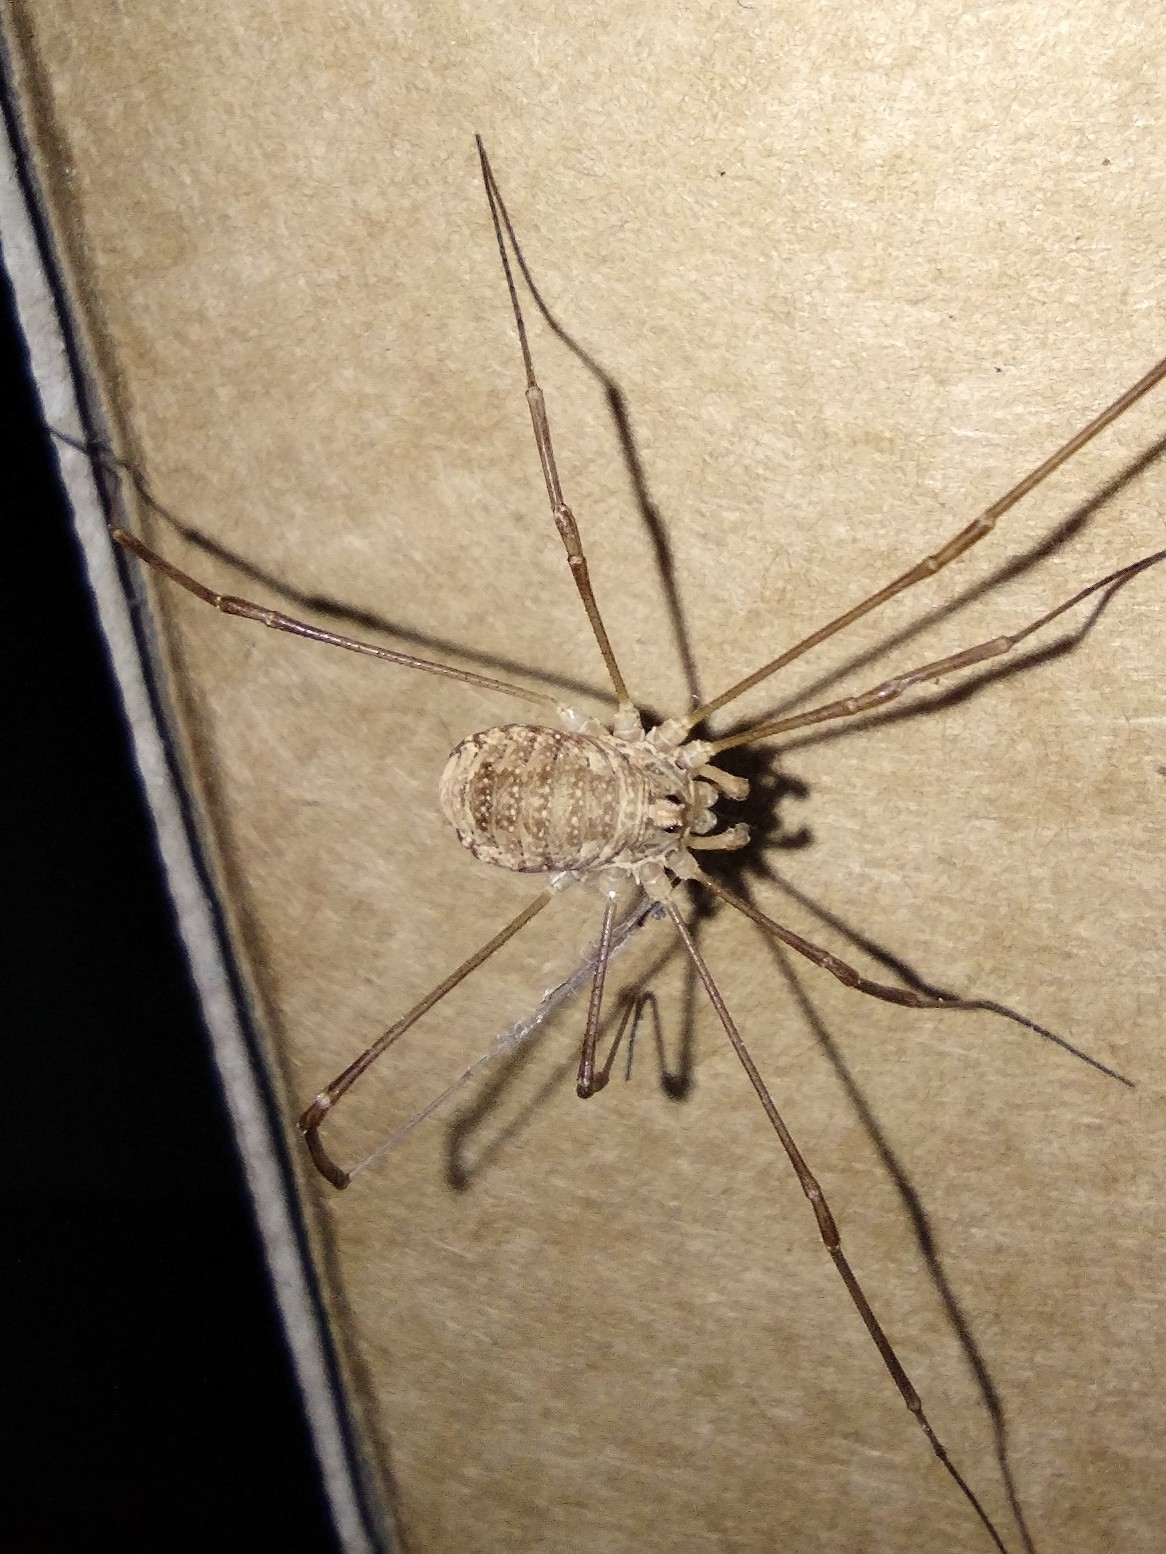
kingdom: Animalia
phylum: Arthropoda
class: Arachnida
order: Opiliones
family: Phalangiidae
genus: Rilaena
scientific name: Rilaena triangularis
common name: Spring harvestman
